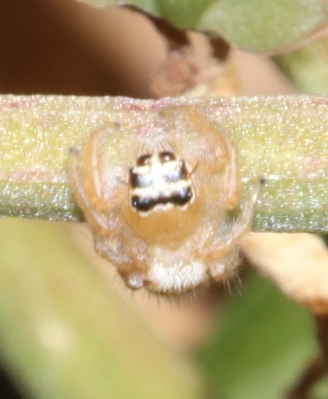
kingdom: Animalia
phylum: Arthropoda
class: Arachnida
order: Araneae
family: Salticidae
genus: Thyene
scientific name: Thyene inflata
